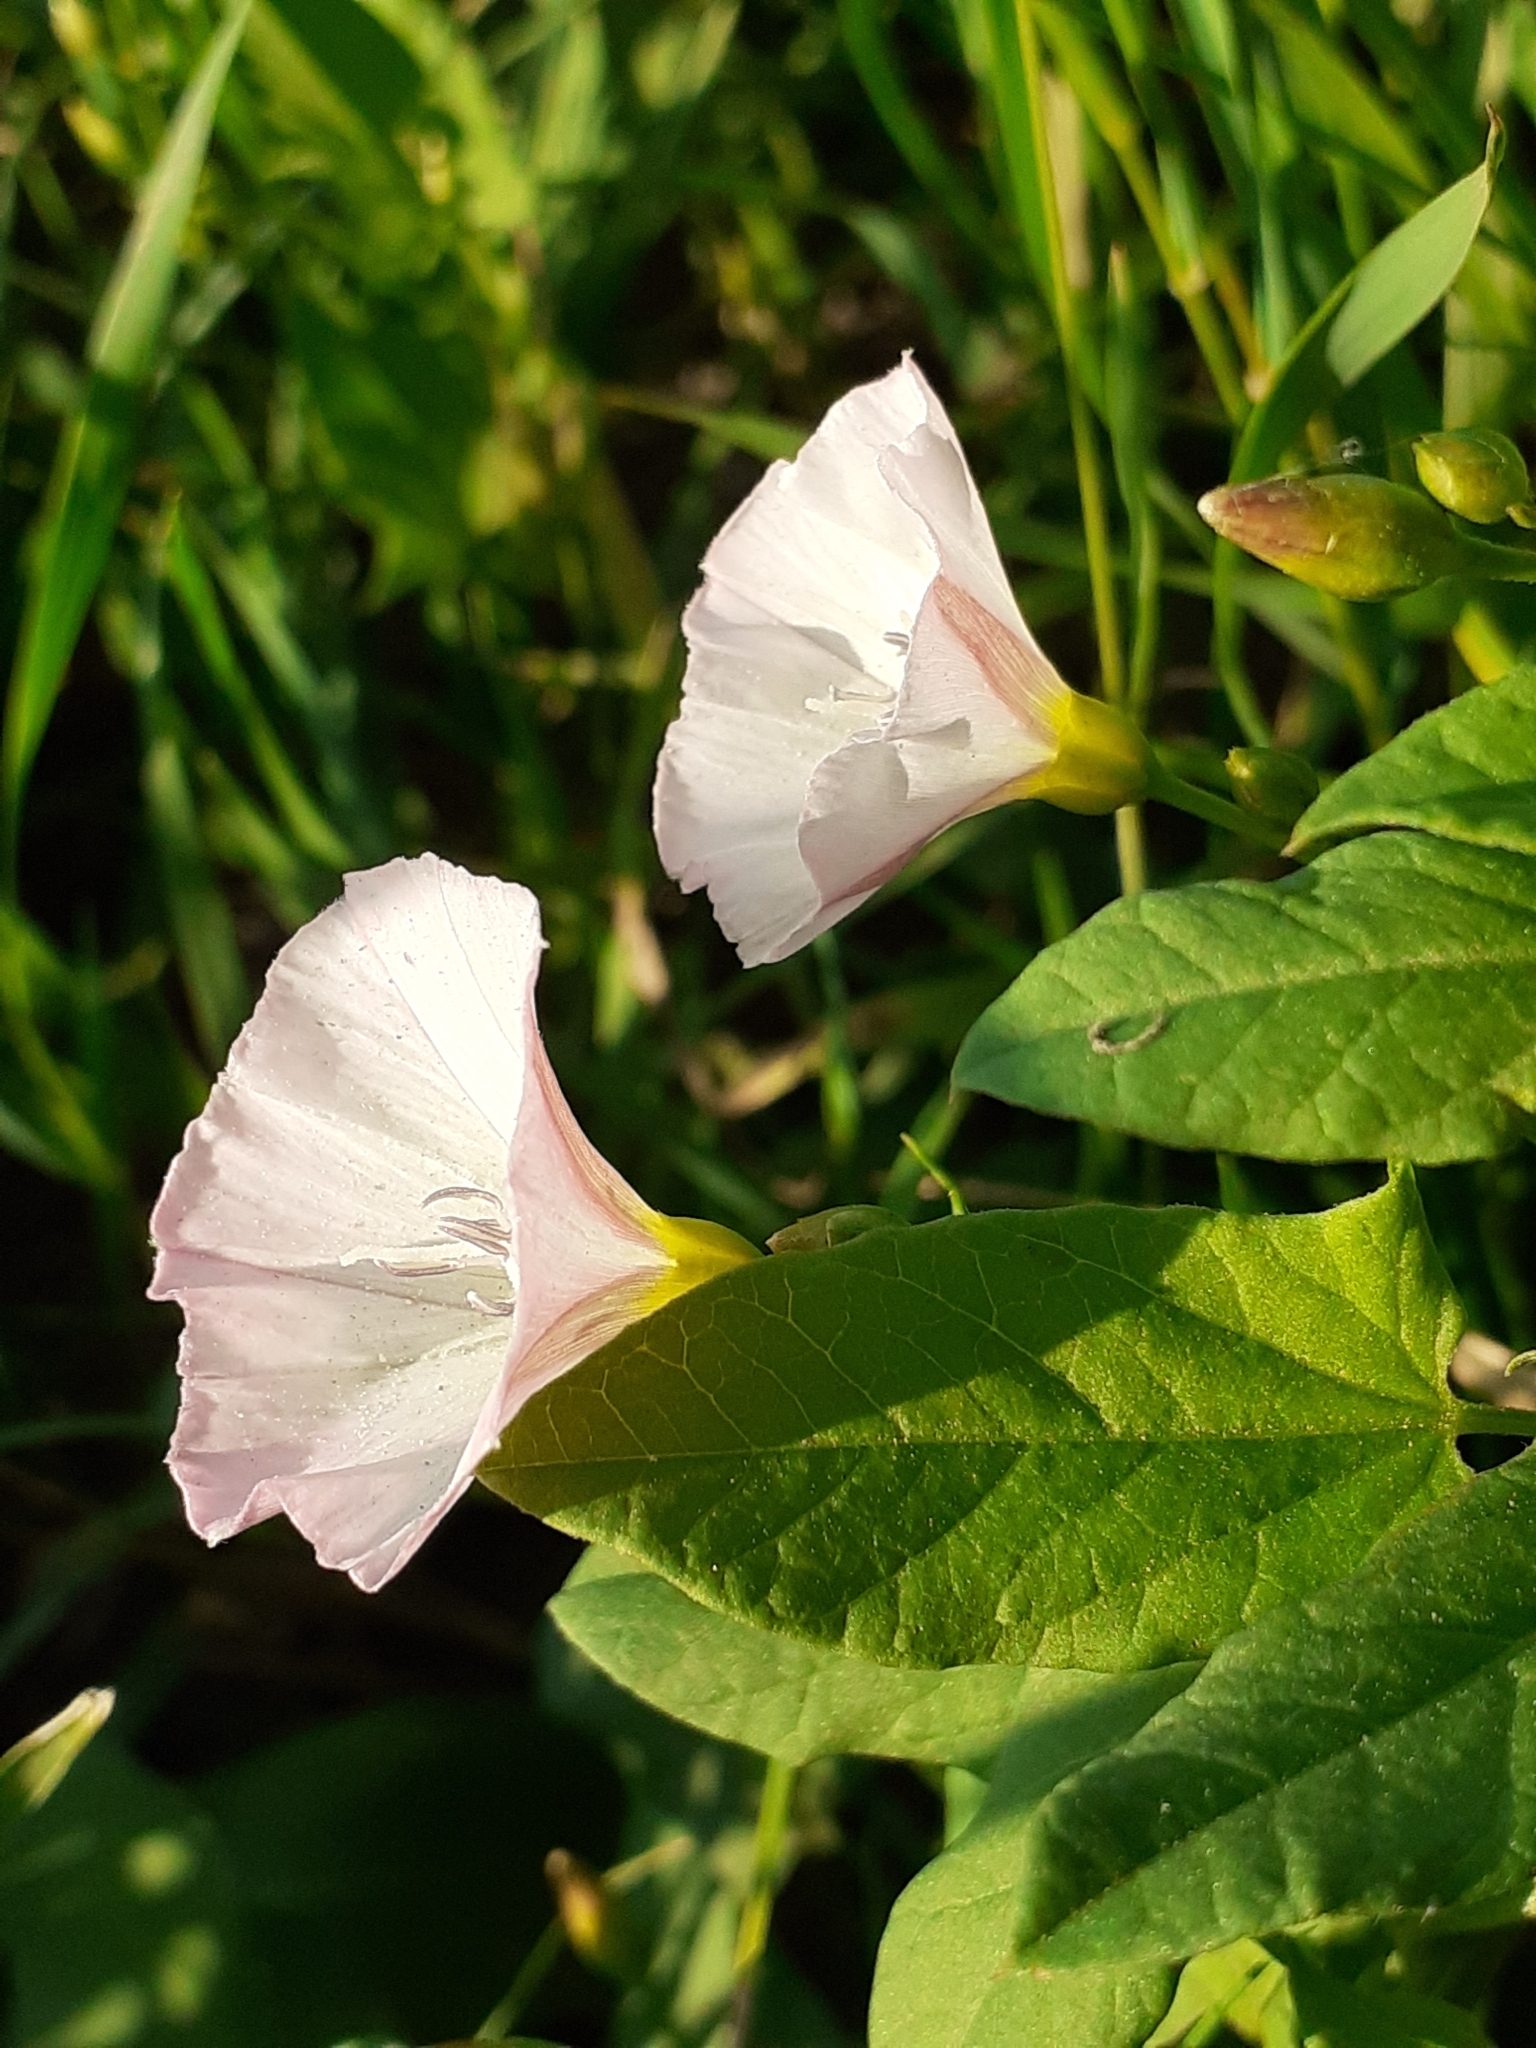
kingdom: Plantae
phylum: Tracheophyta
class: Magnoliopsida
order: Solanales
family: Convolvulaceae
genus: Convolvulus
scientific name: Convolvulus arvensis
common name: Field bindweed
